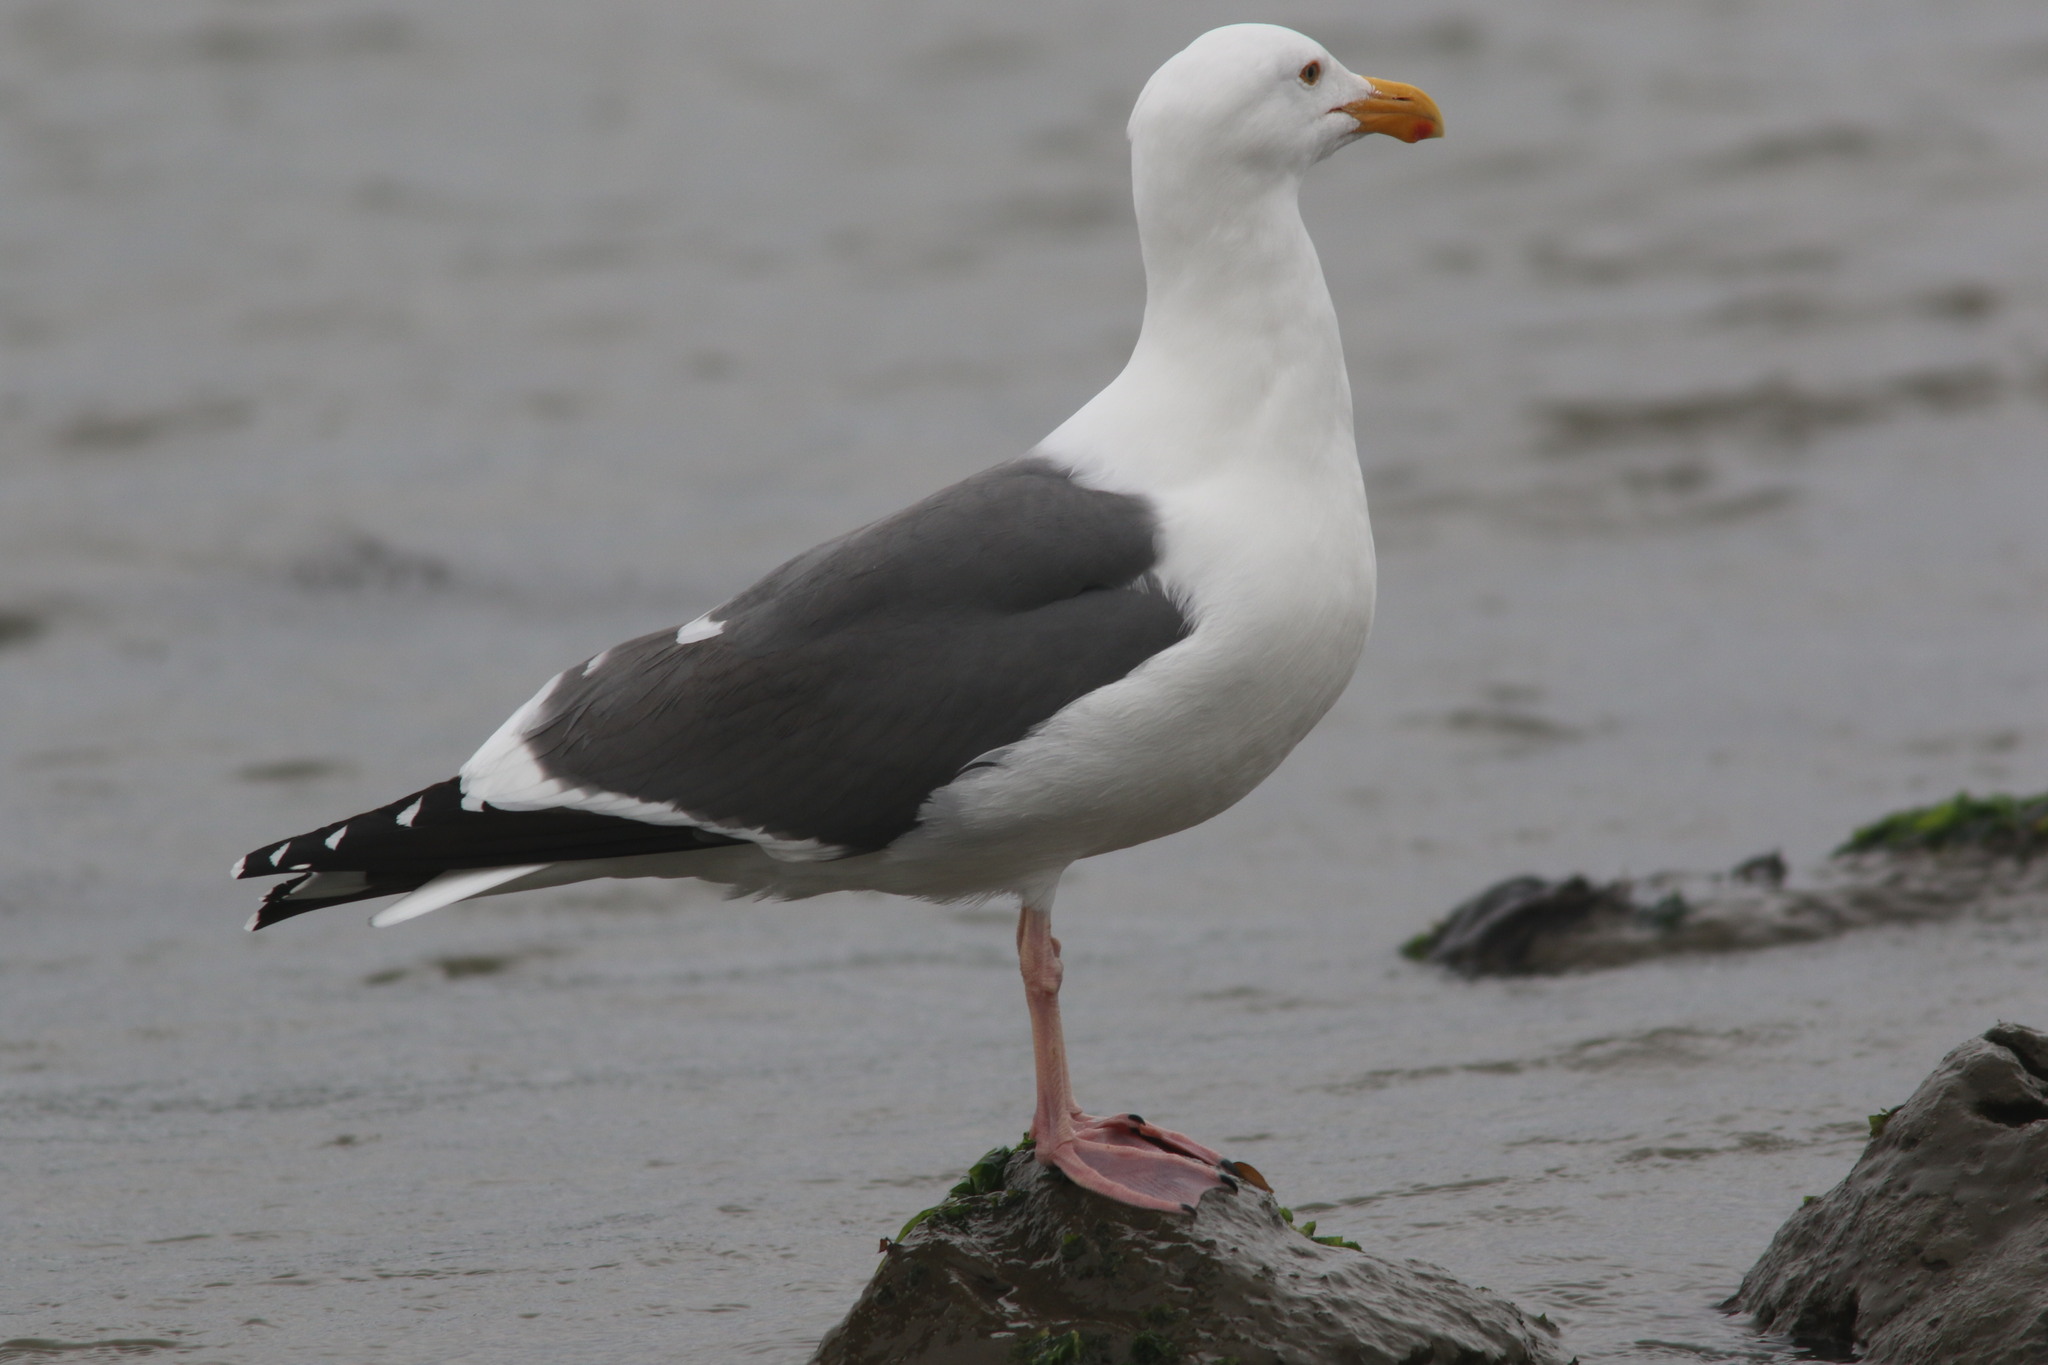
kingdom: Animalia
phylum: Chordata
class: Aves
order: Charadriiformes
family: Laridae
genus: Larus
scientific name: Larus occidentalis
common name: Western gull
